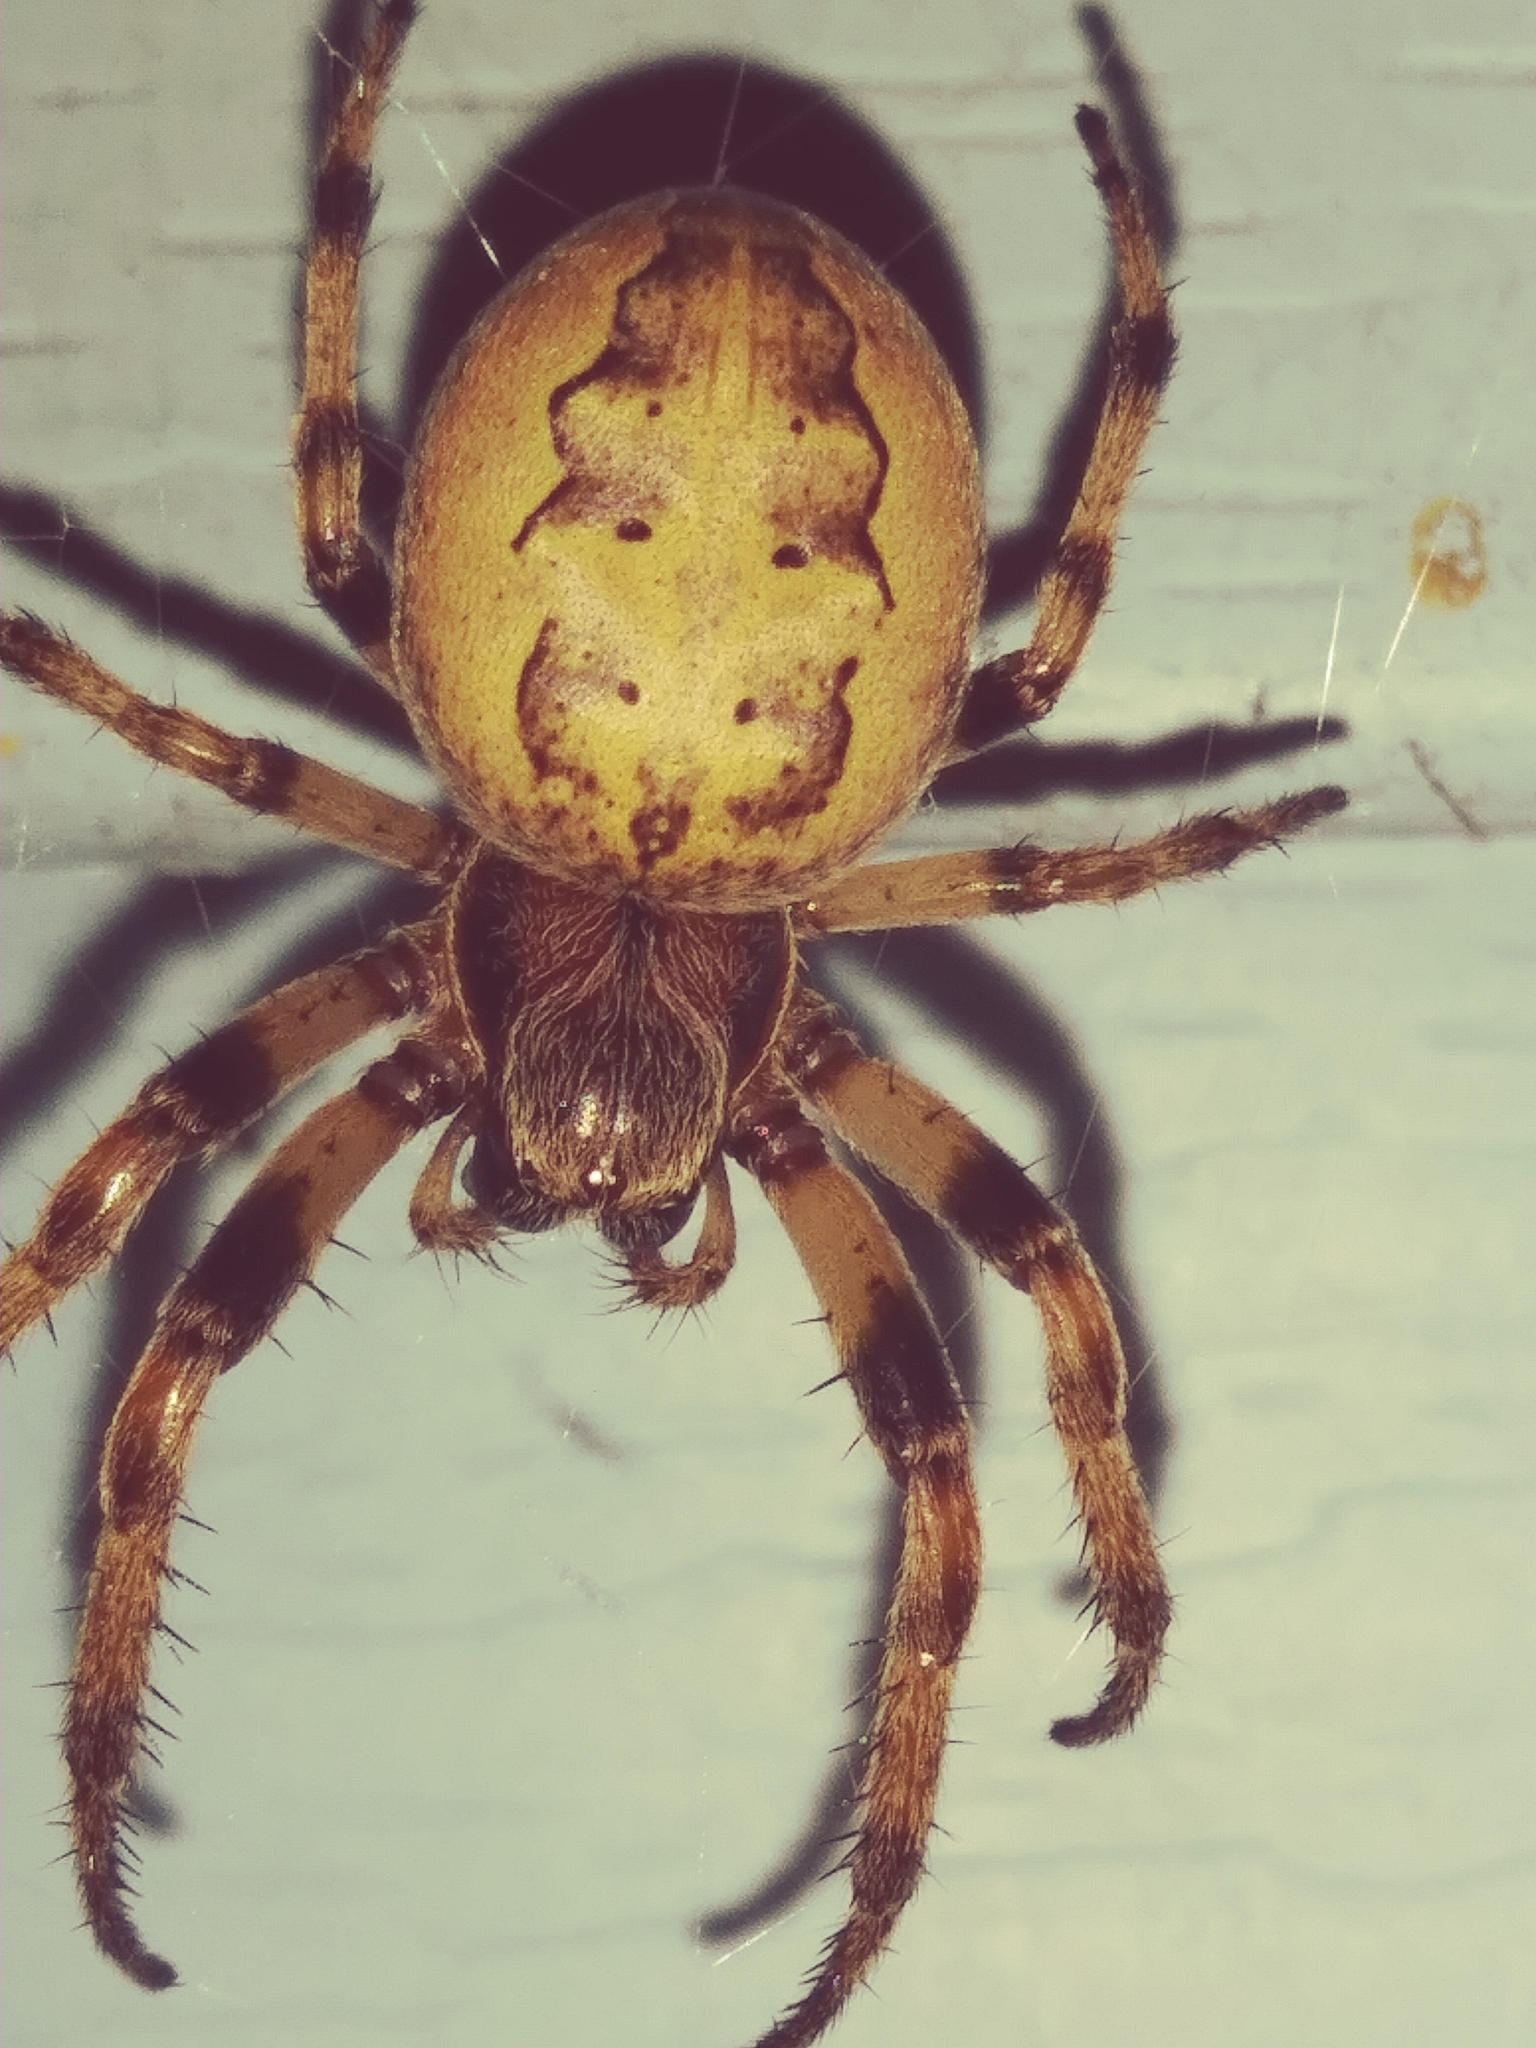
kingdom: Animalia
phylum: Arthropoda
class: Arachnida
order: Araneae
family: Araneidae
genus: Larinioides
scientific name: Larinioides cornutus
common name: Furrow orbweaver
